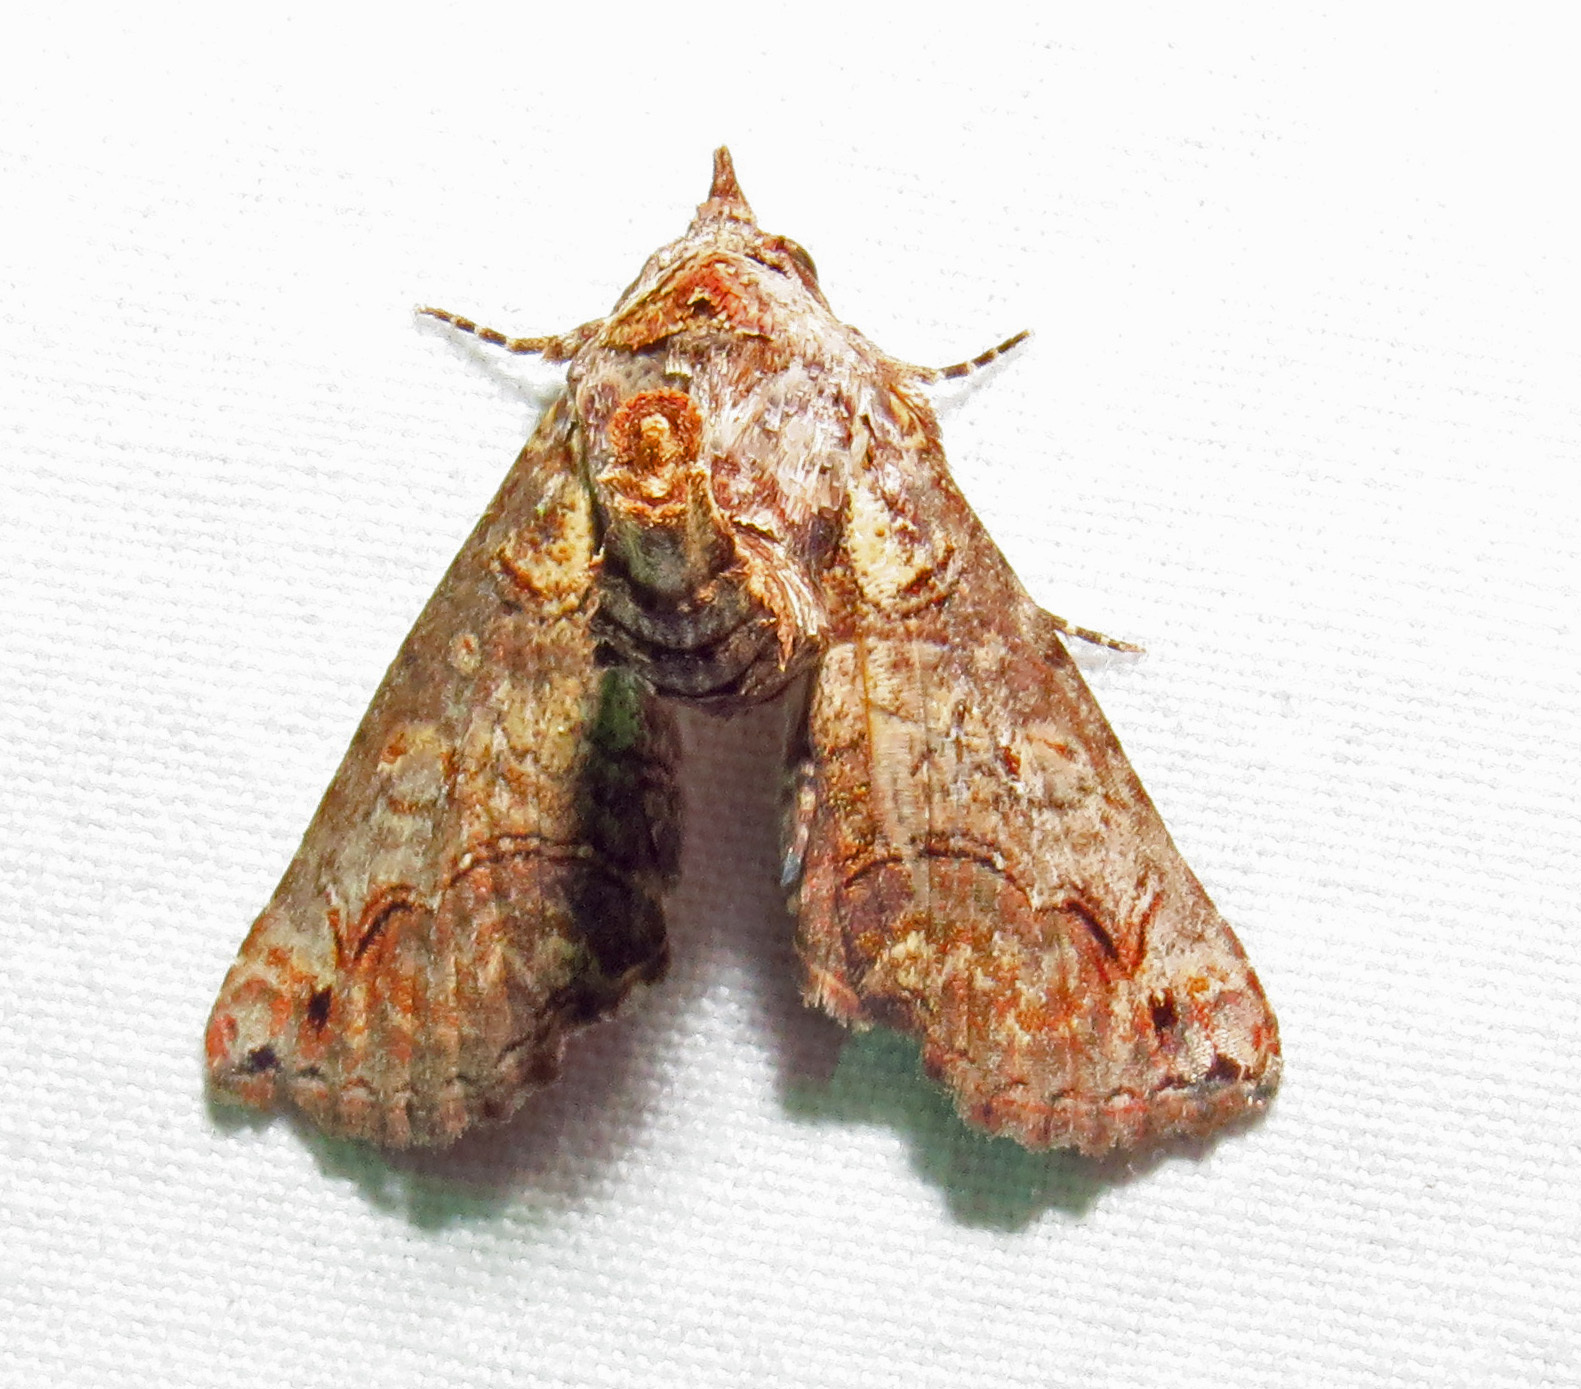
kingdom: Animalia
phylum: Arthropoda
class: Insecta
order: Lepidoptera
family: Euteliidae
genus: Paectes
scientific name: Paectes abrostoloides
